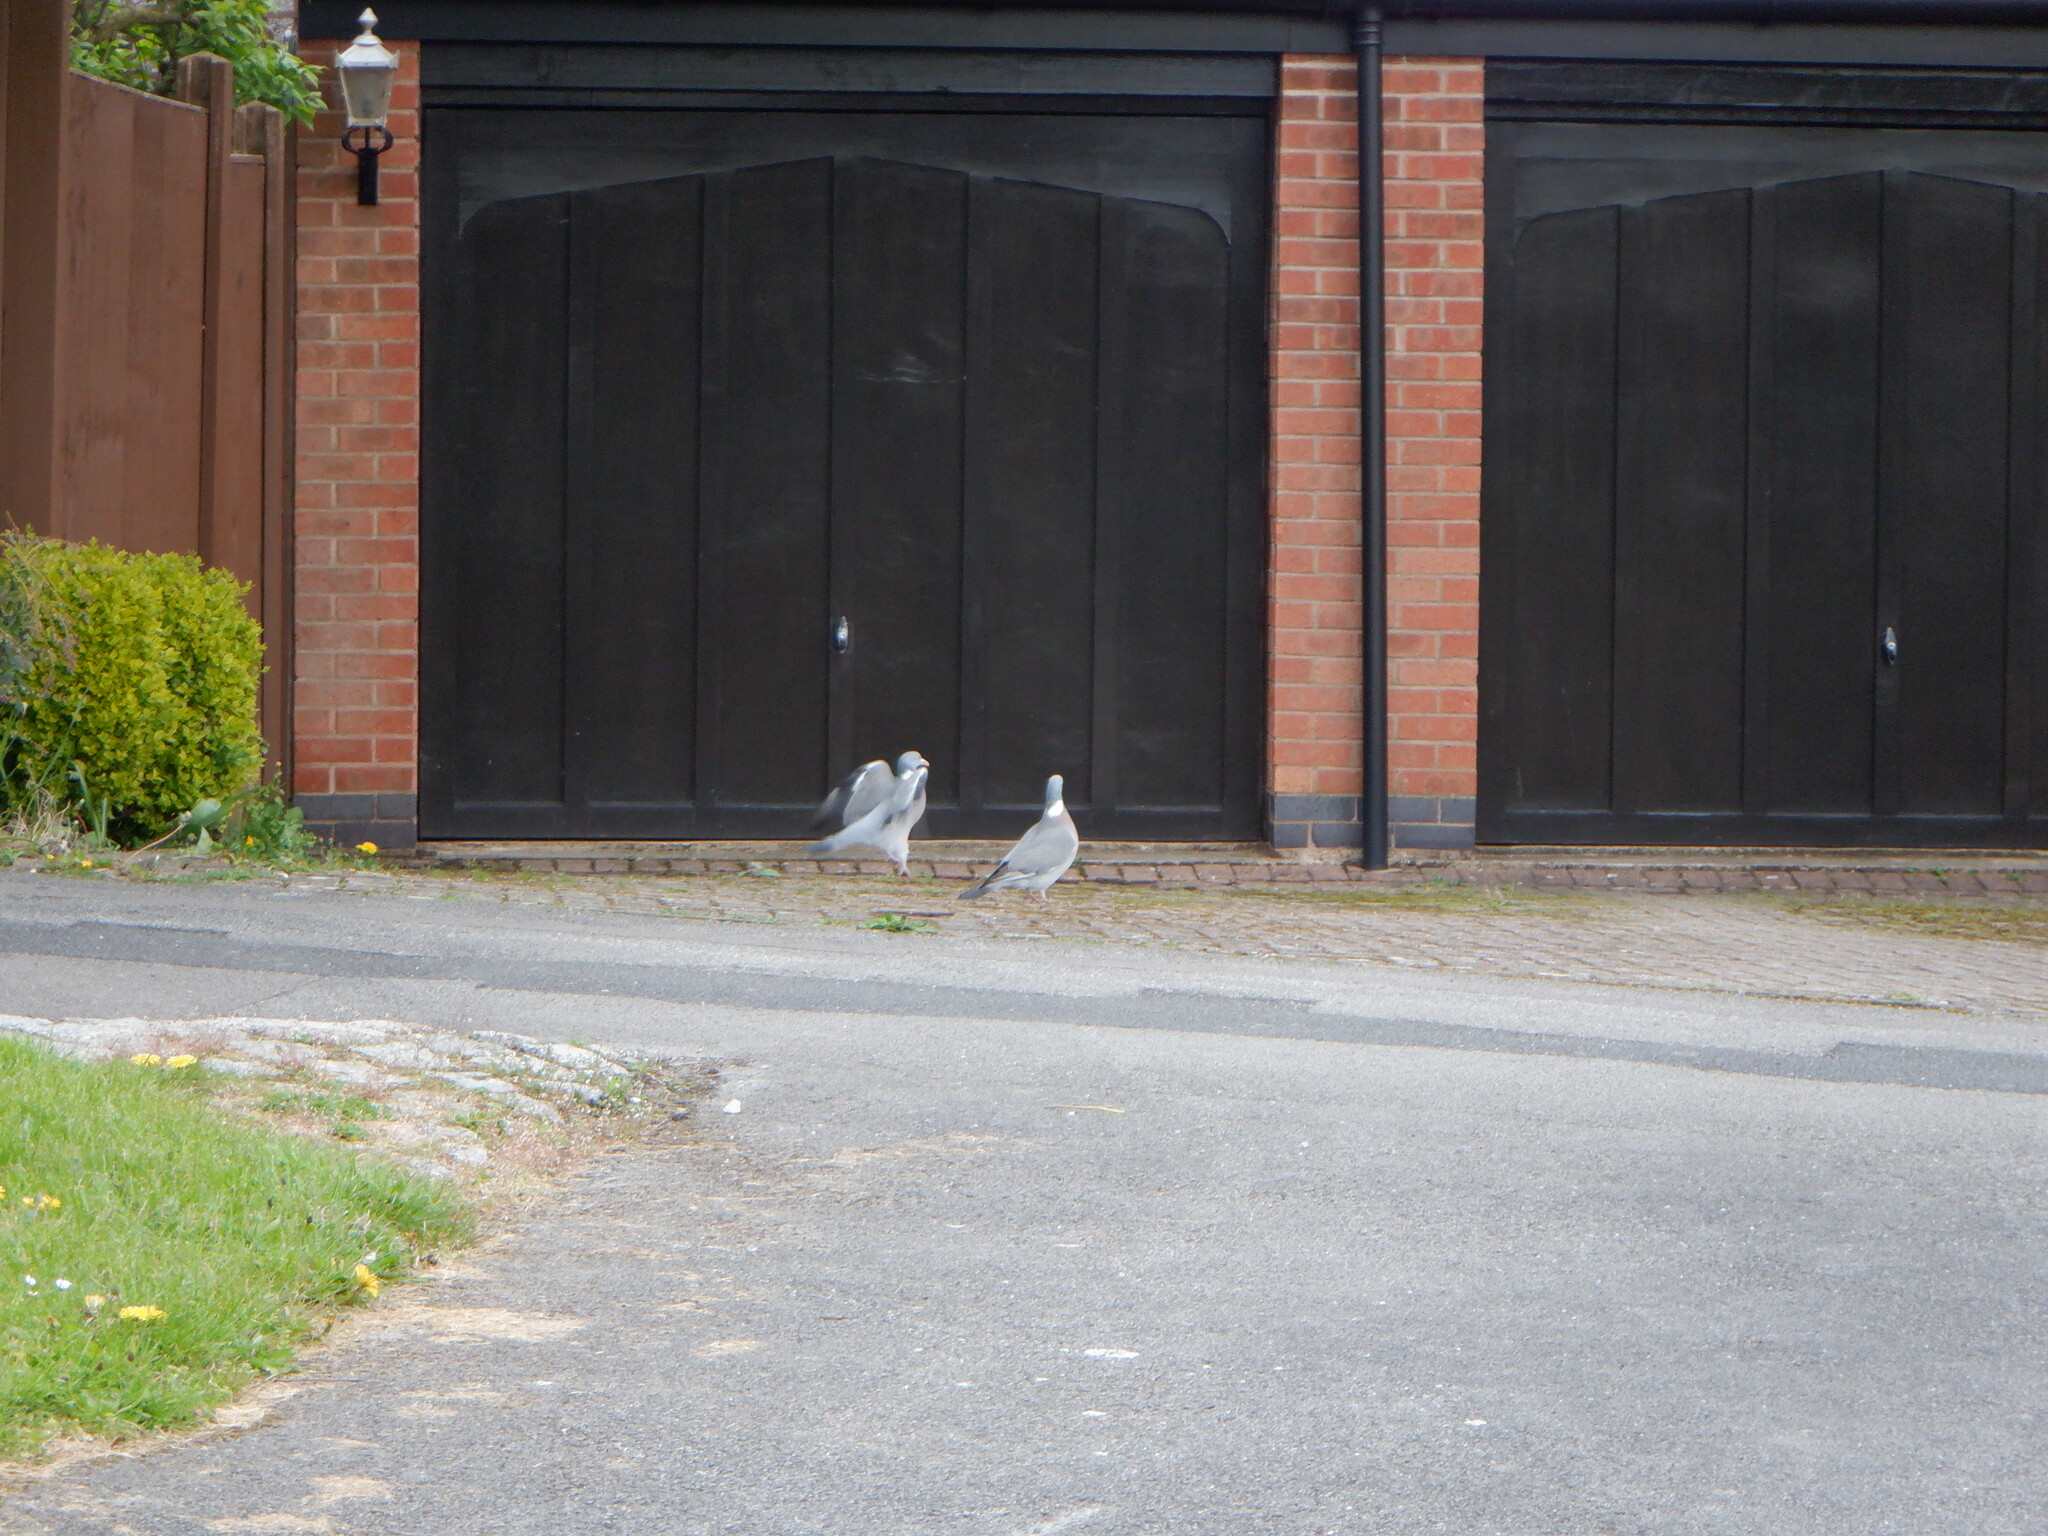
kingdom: Animalia
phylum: Chordata
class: Aves
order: Columbiformes
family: Columbidae
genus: Columba
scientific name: Columba palumbus
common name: Common wood pigeon
